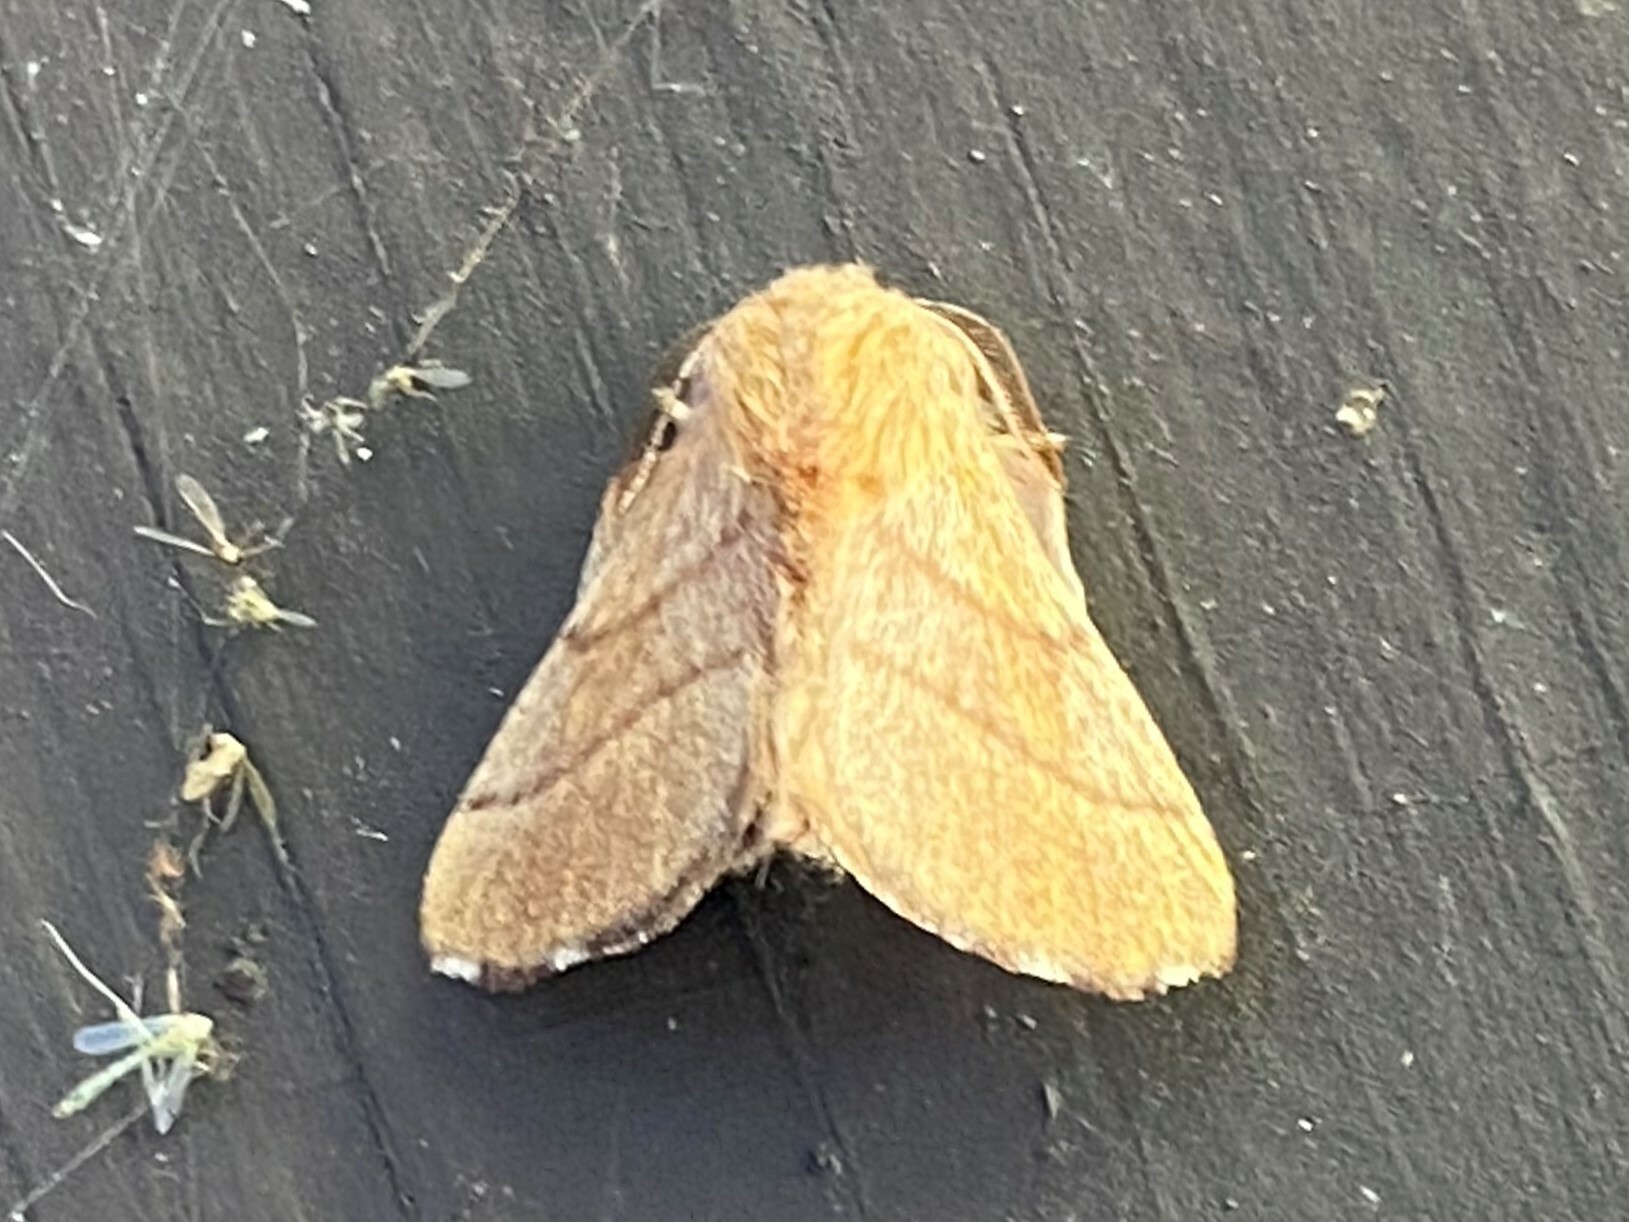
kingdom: Animalia
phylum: Arthropoda
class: Insecta
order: Lepidoptera
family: Lasiocampidae
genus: Malacosoma
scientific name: Malacosoma disstria
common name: Forest tent caterpillar
